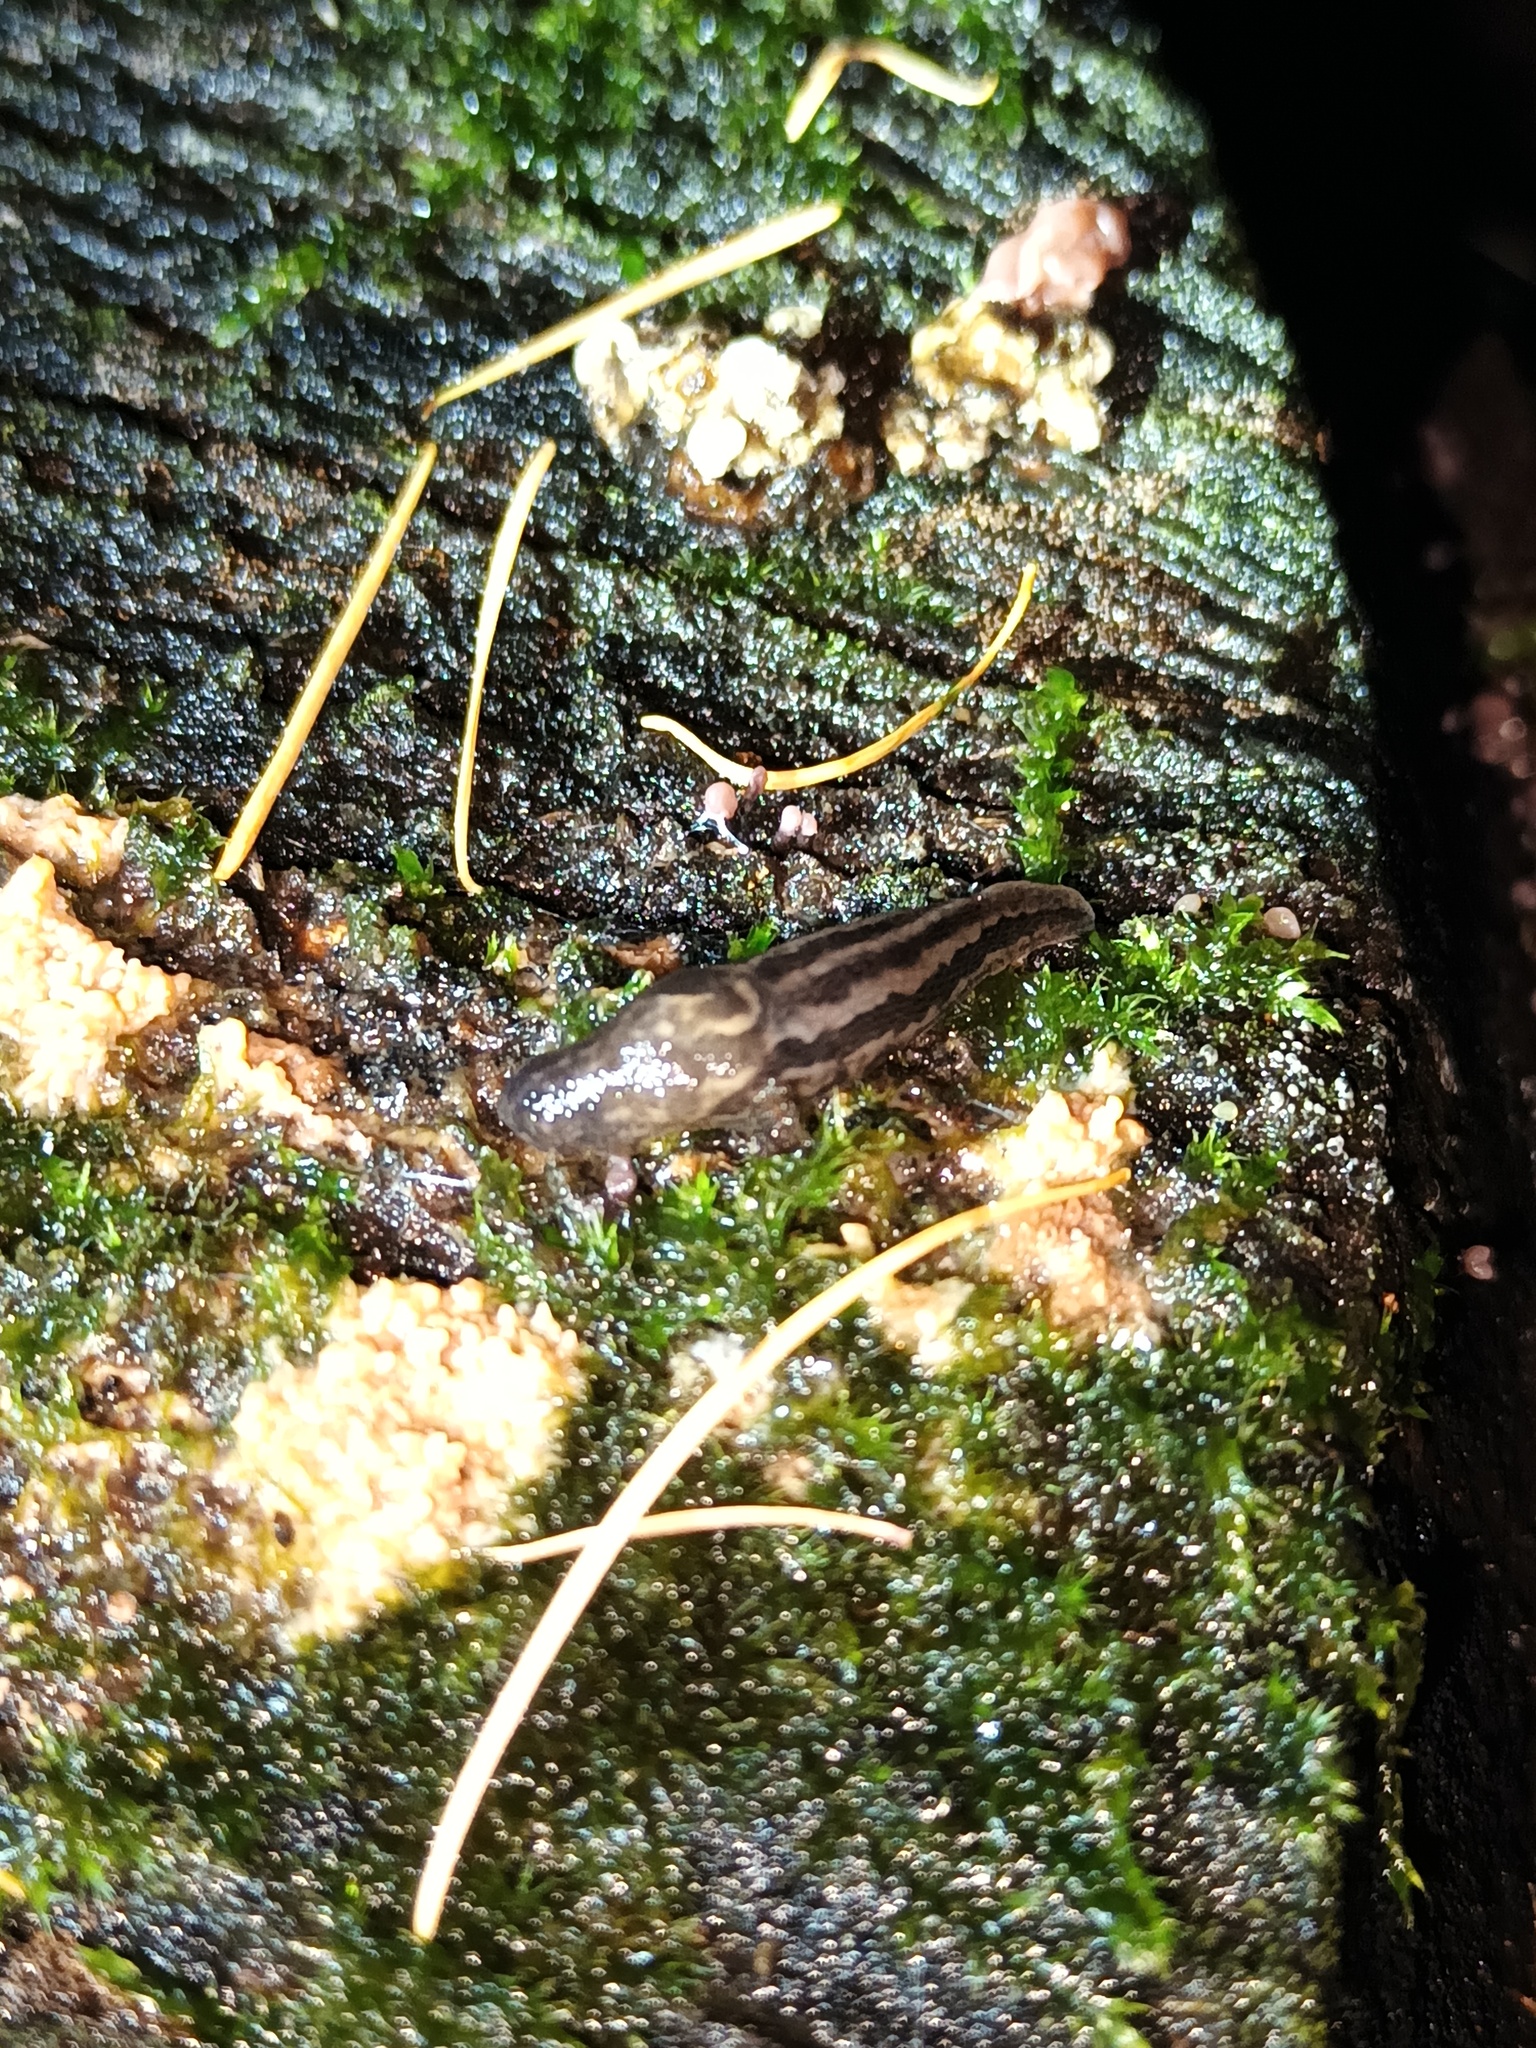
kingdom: Animalia
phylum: Mollusca
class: Gastropoda
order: Stylommatophora
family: Limacidae
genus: Limax
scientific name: Limax maximus
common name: Great grey slug
